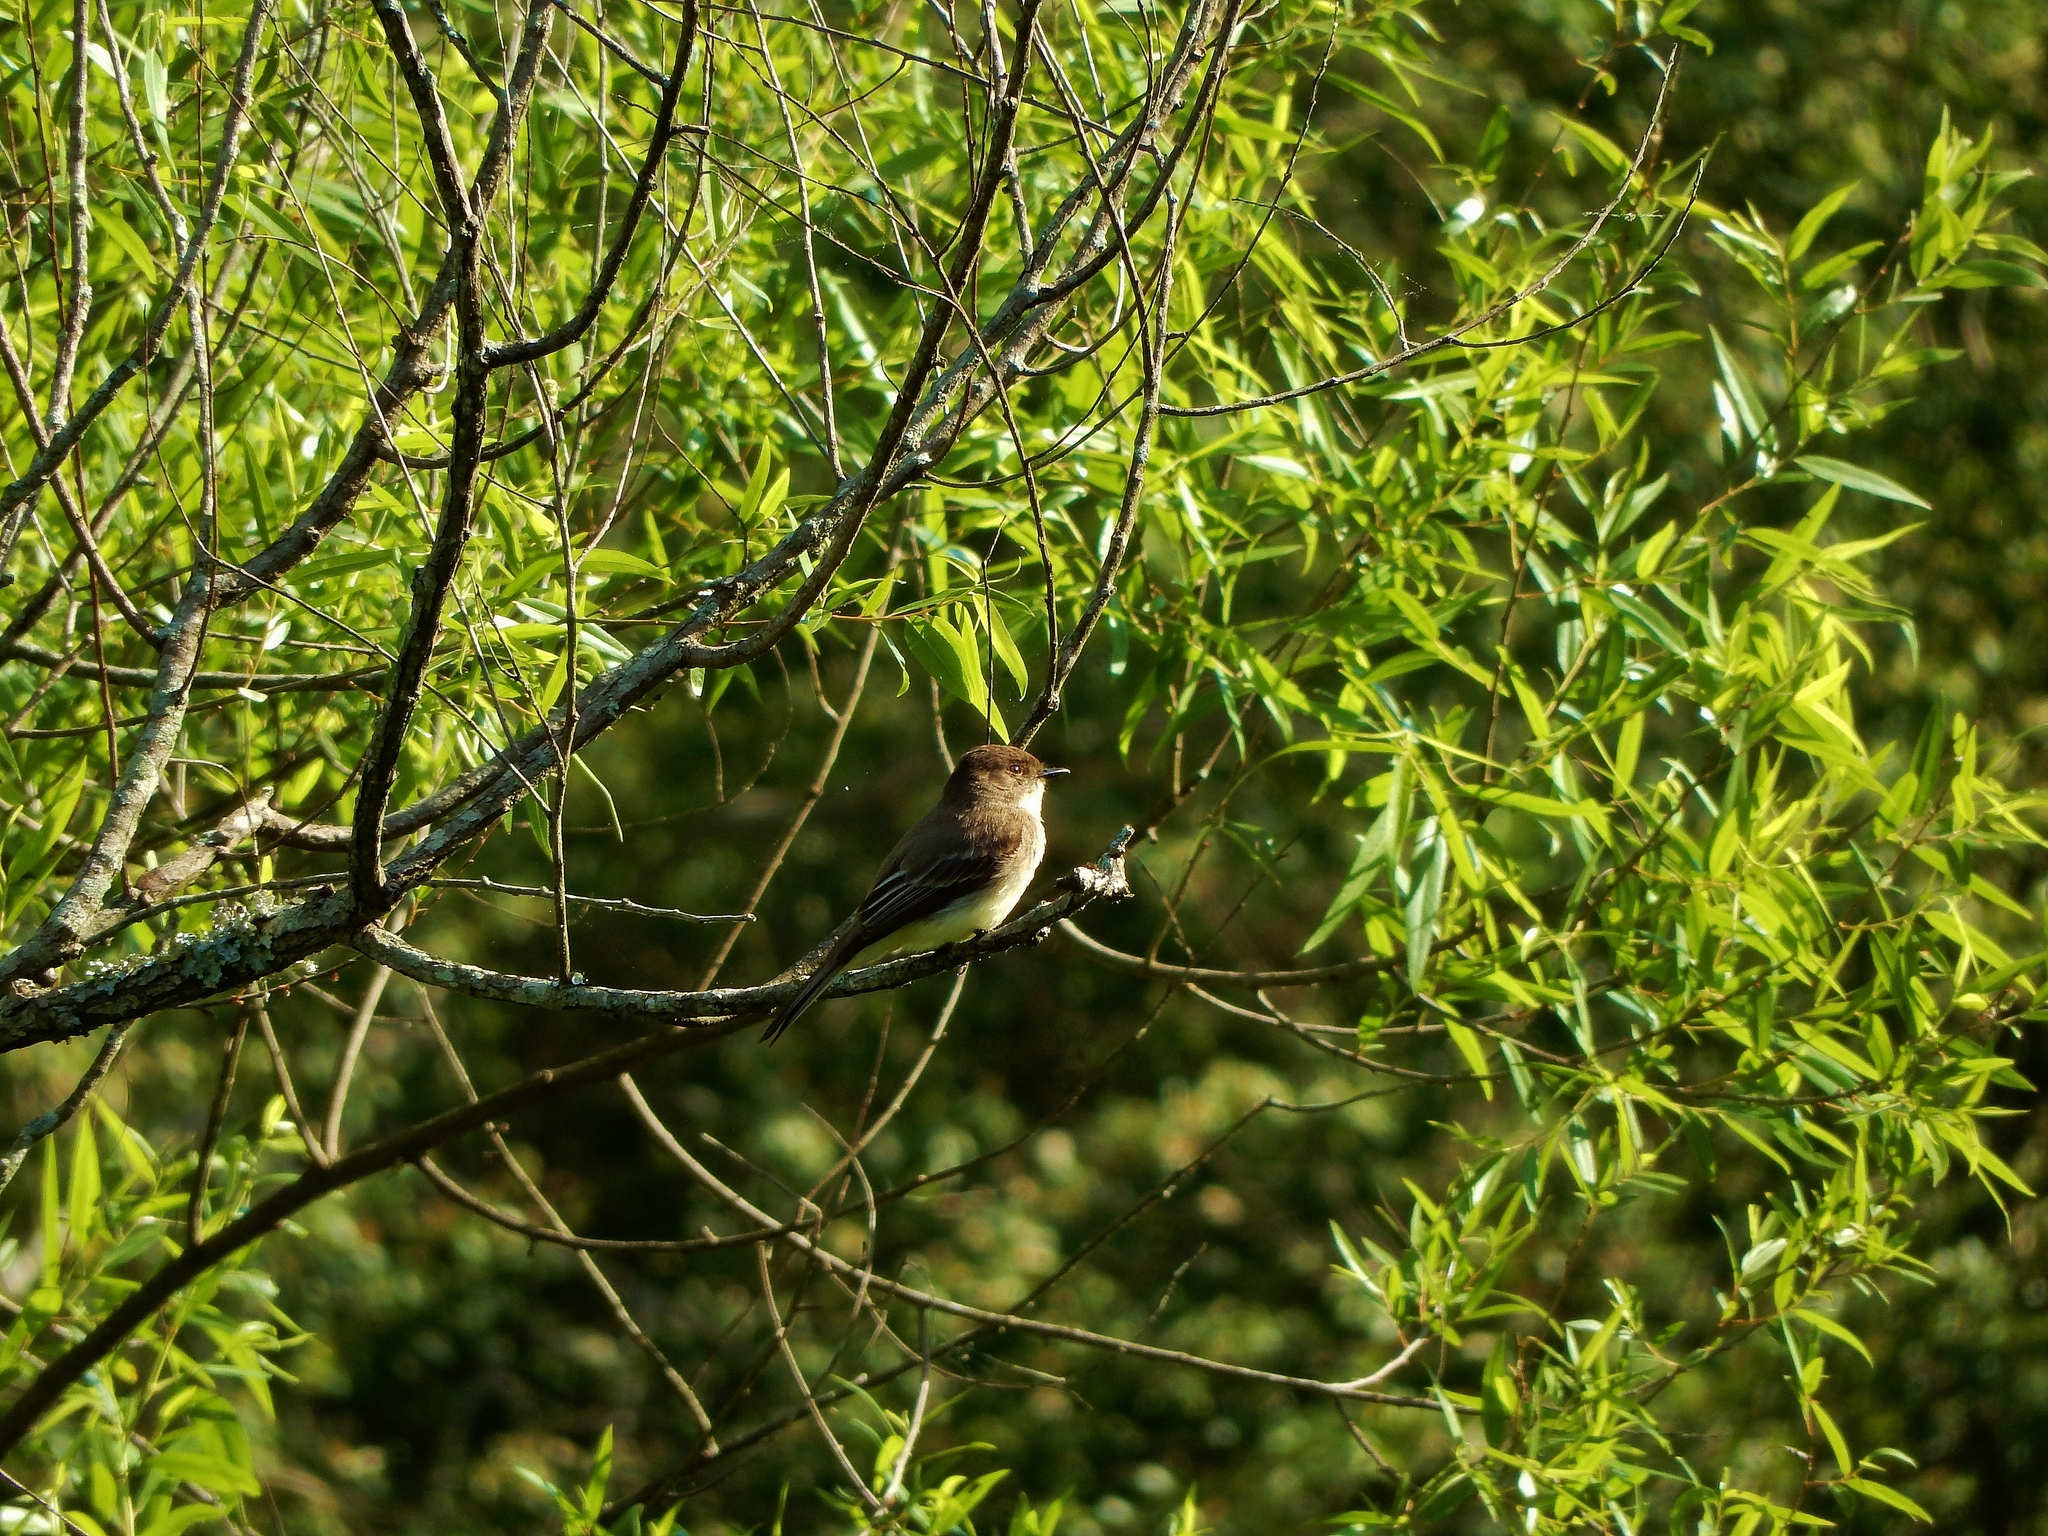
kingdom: Animalia
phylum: Chordata
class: Aves
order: Passeriformes
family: Tyrannidae
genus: Sayornis
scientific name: Sayornis phoebe
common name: Eastern phoebe
